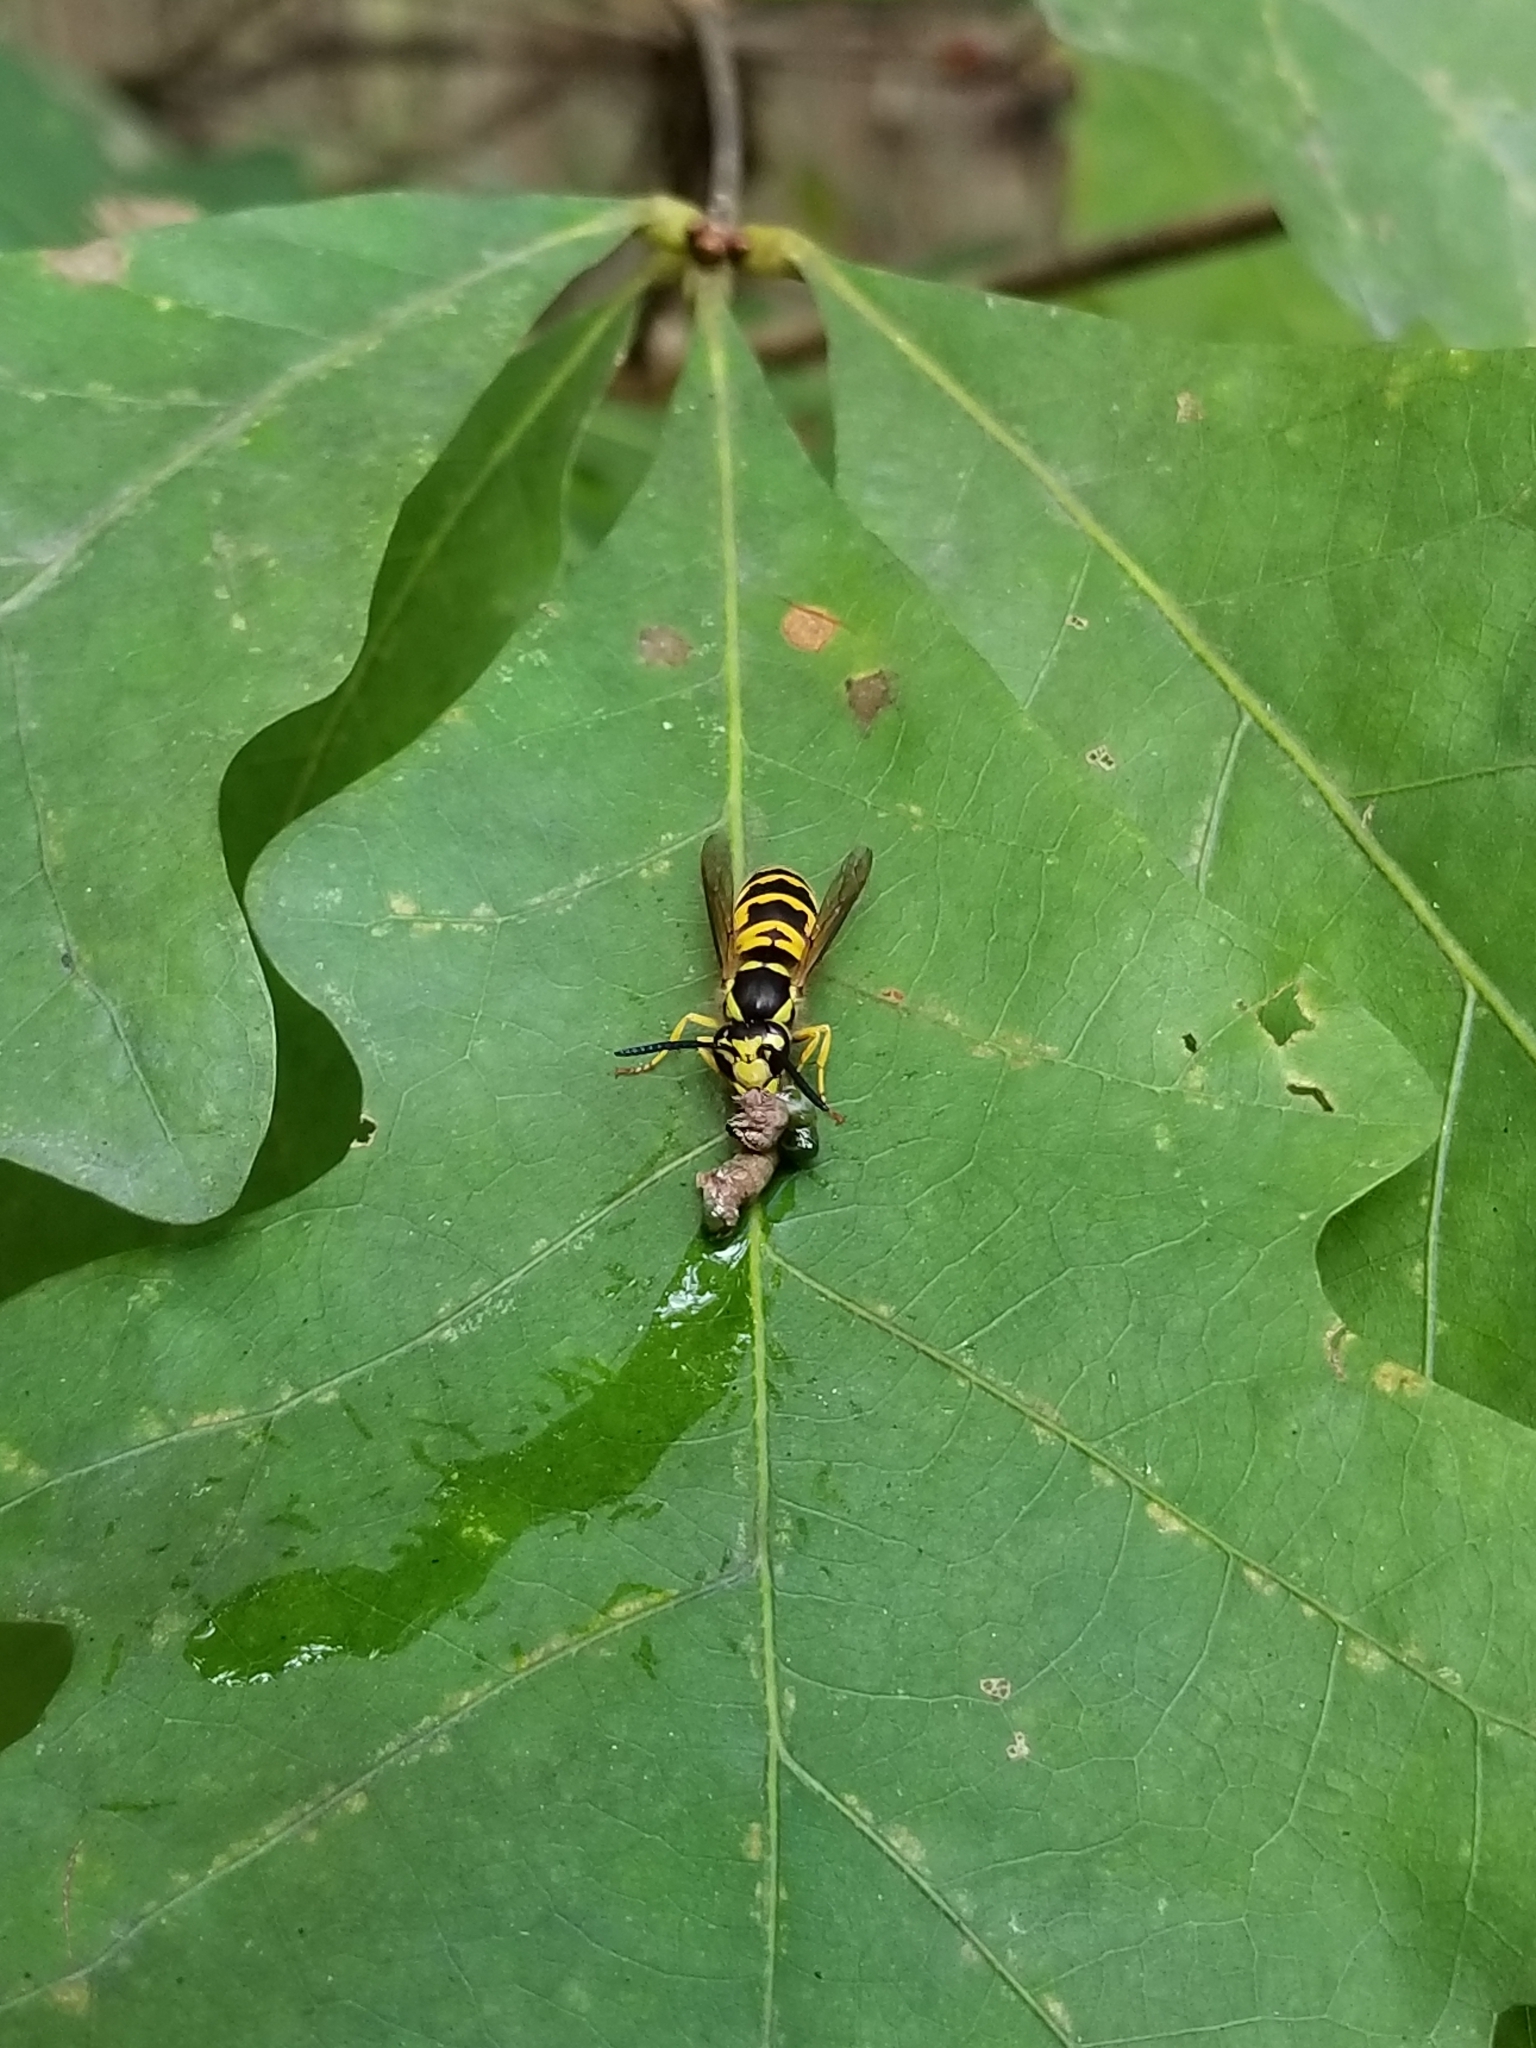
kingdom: Animalia
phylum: Arthropoda
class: Insecta
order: Hymenoptera
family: Vespidae
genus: Vespula
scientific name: Vespula maculifrons
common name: Eastern yellowjacket
